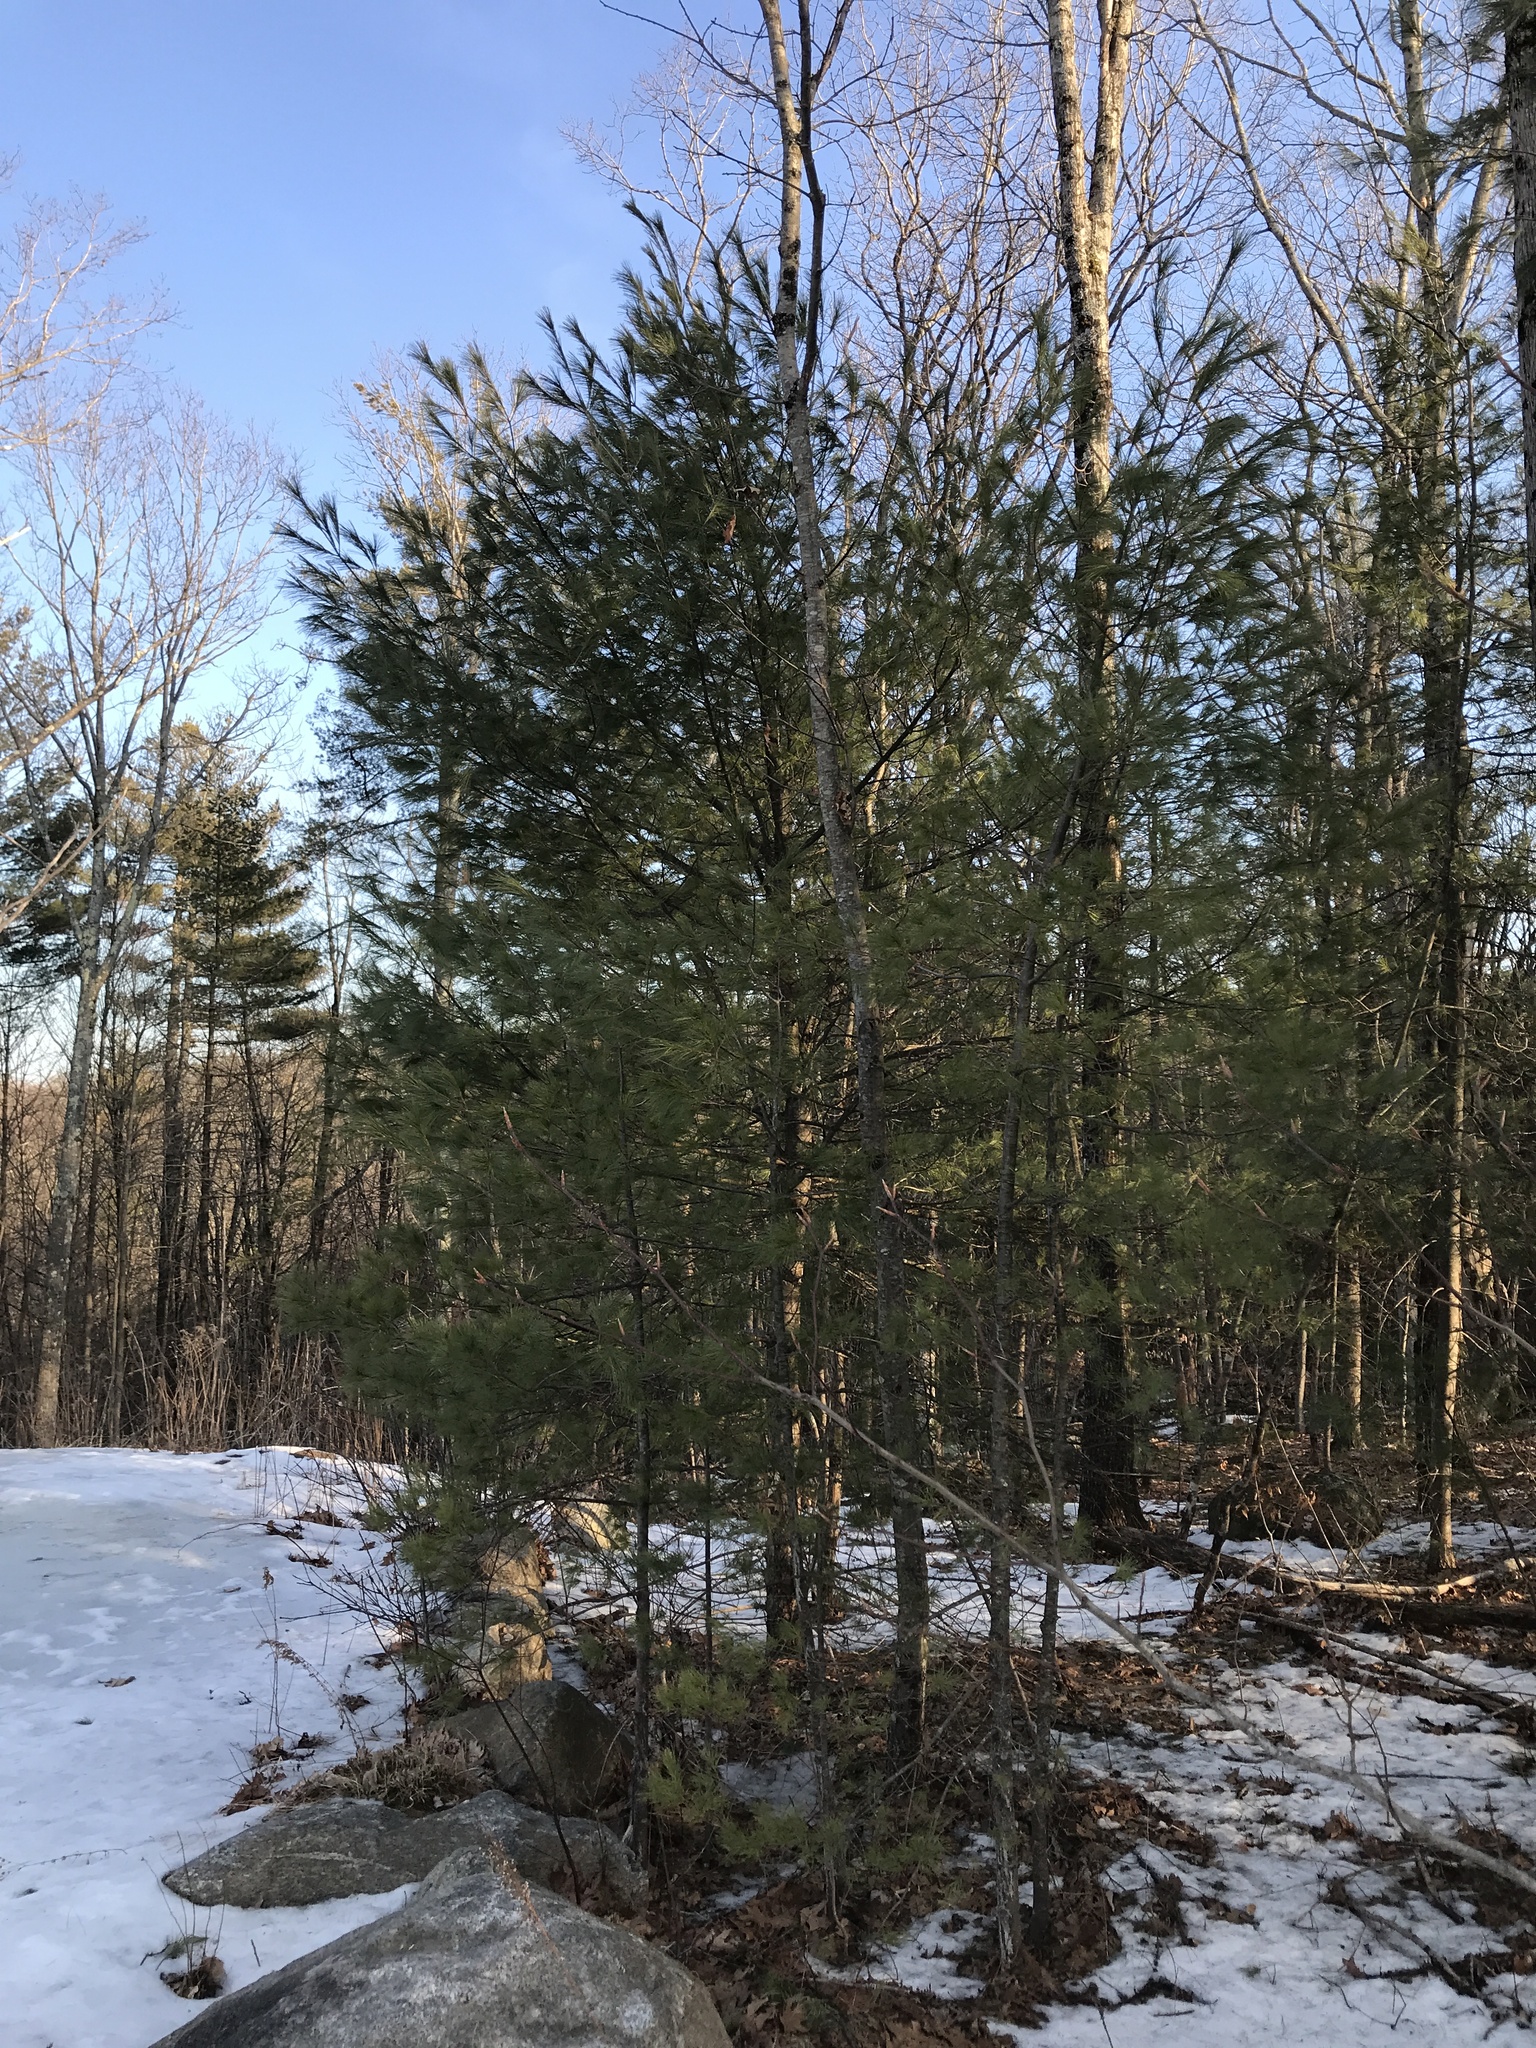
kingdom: Plantae
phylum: Tracheophyta
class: Pinopsida
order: Pinales
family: Pinaceae
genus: Pinus
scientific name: Pinus strobus
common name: Weymouth pine
